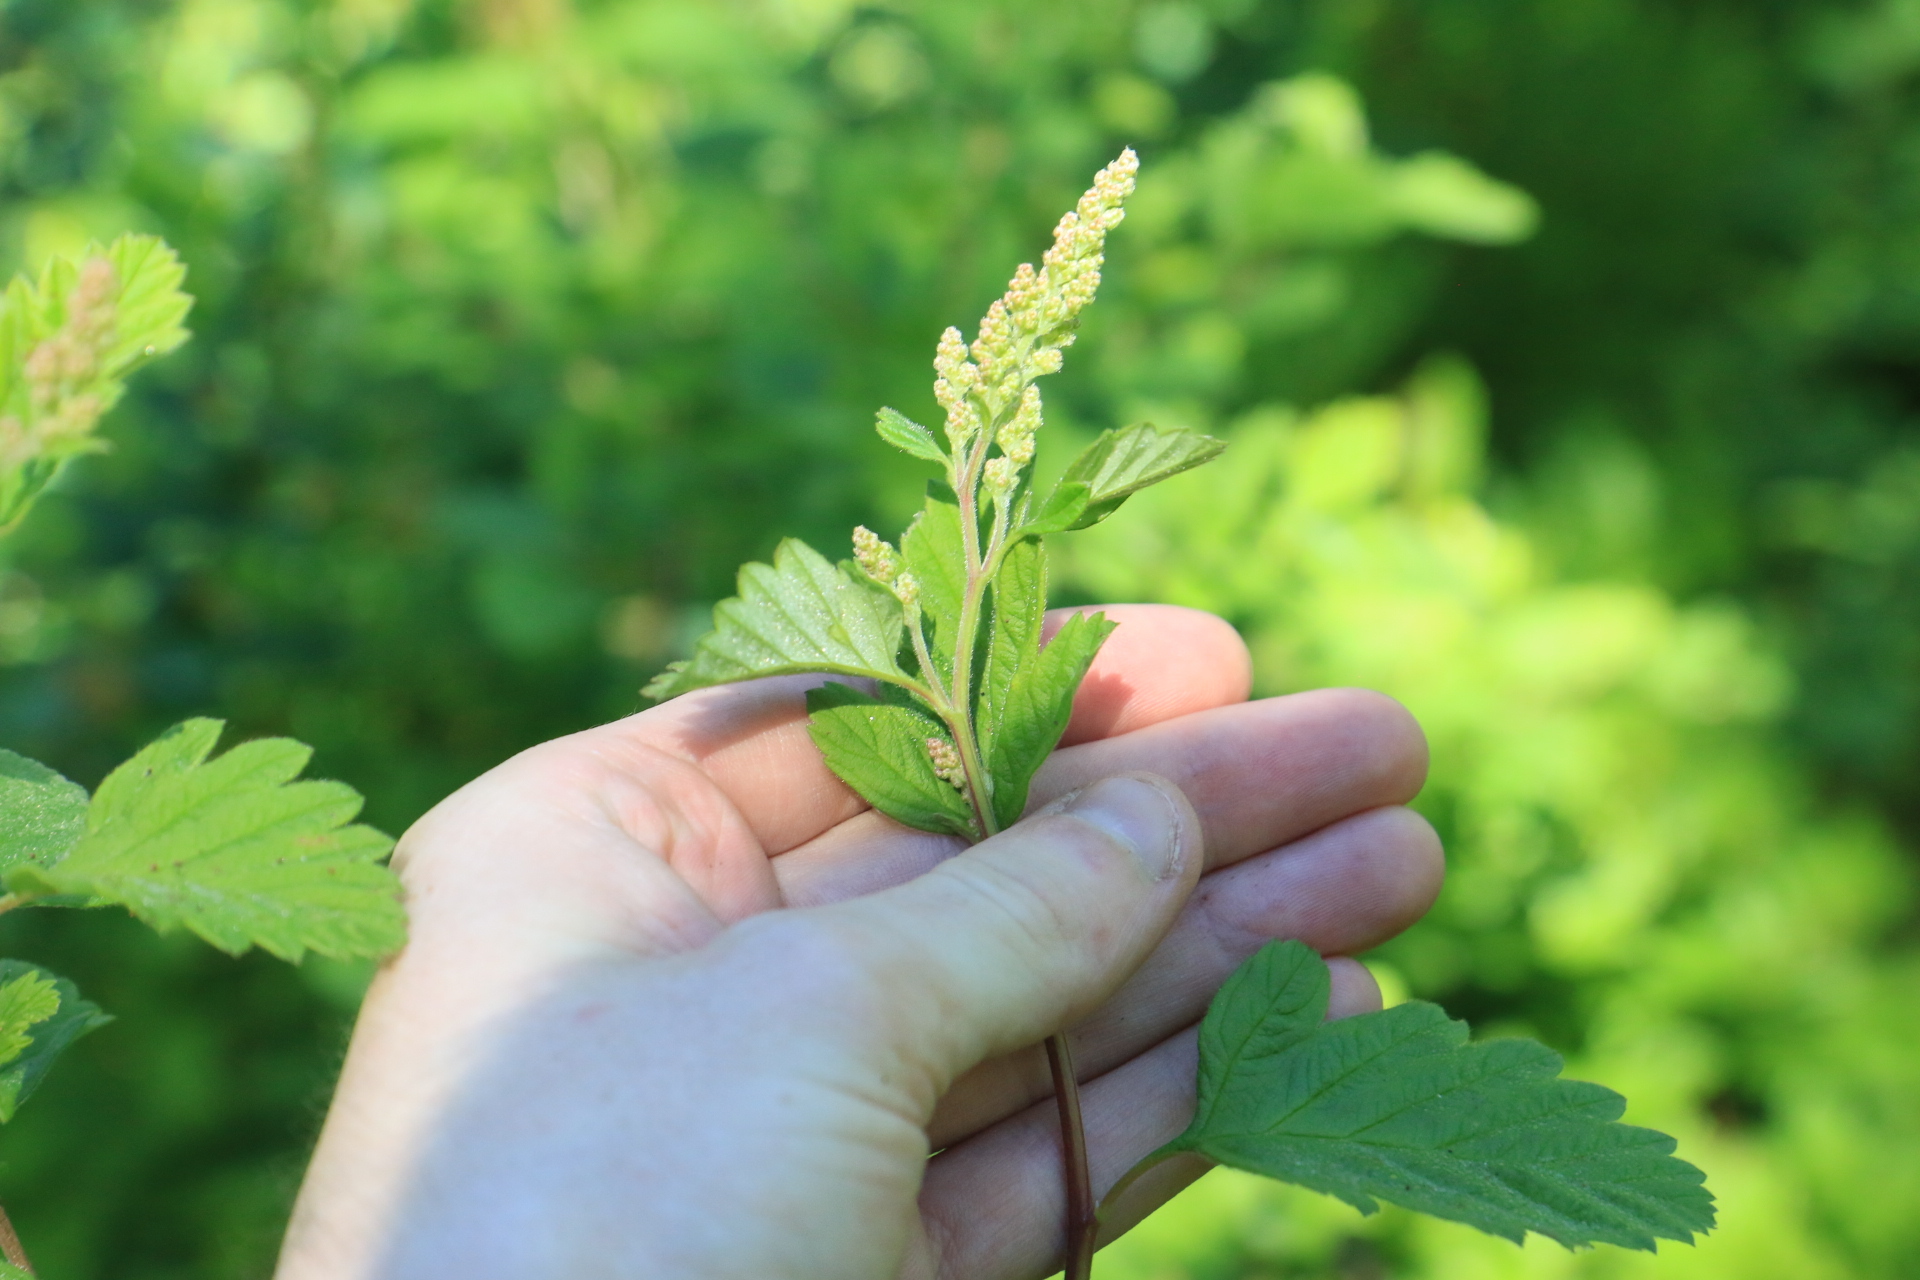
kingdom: Plantae
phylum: Tracheophyta
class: Magnoliopsida
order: Rosales
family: Rosaceae
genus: Holodiscus
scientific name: Holodiscus discolor
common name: Oceanspray
